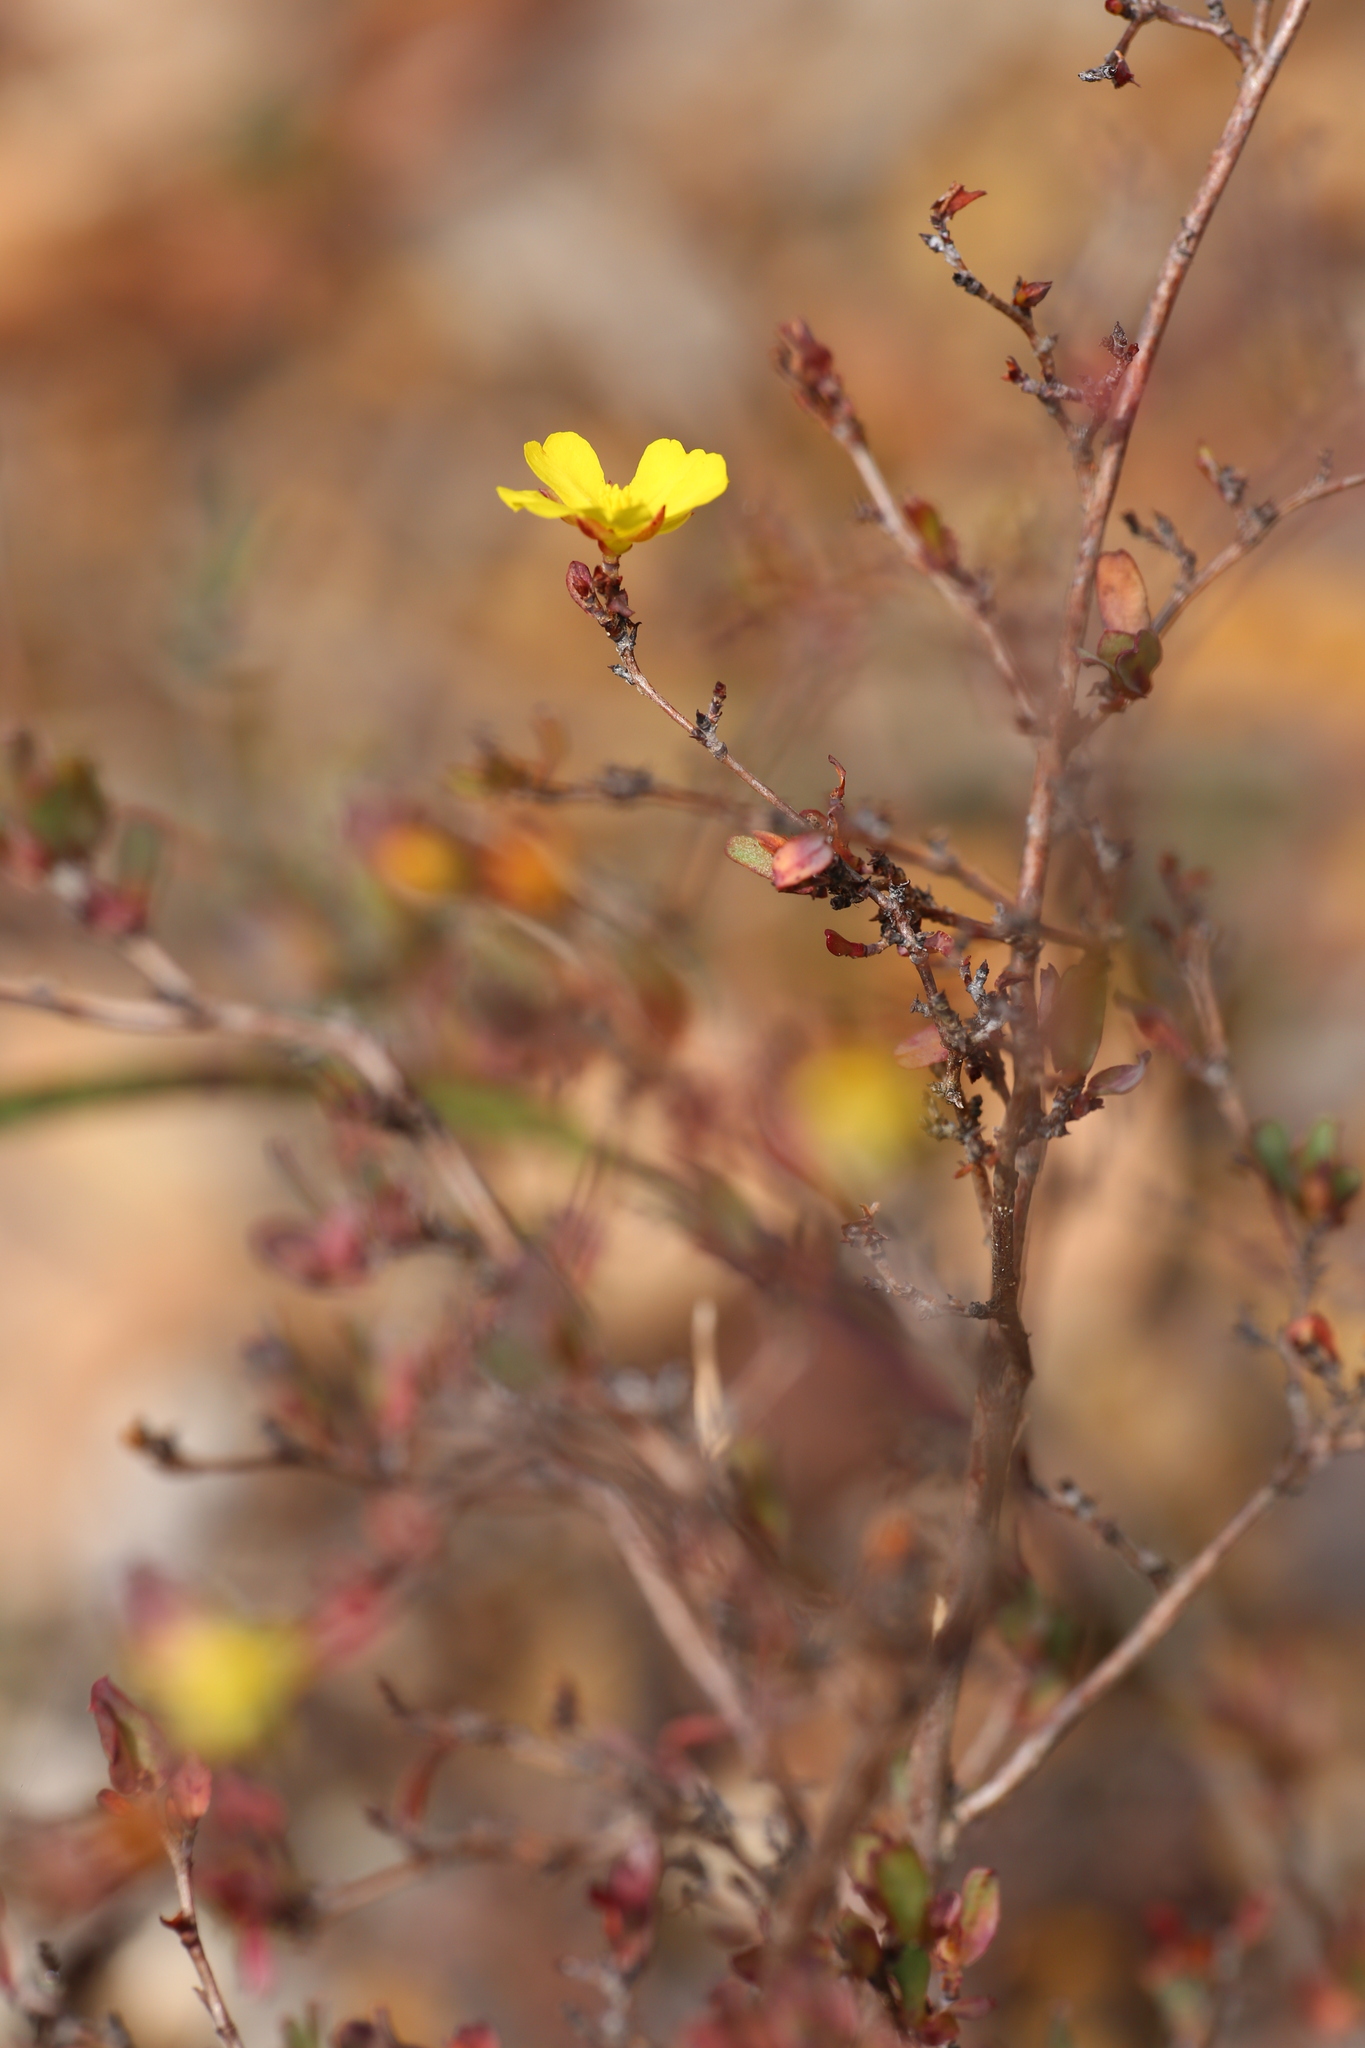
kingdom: Plantae
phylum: Tracheophyta
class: Magnoliopsida
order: Dilleniales
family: Dilleniaceae
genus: Hibbertia
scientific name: Hibbertia glomerata
